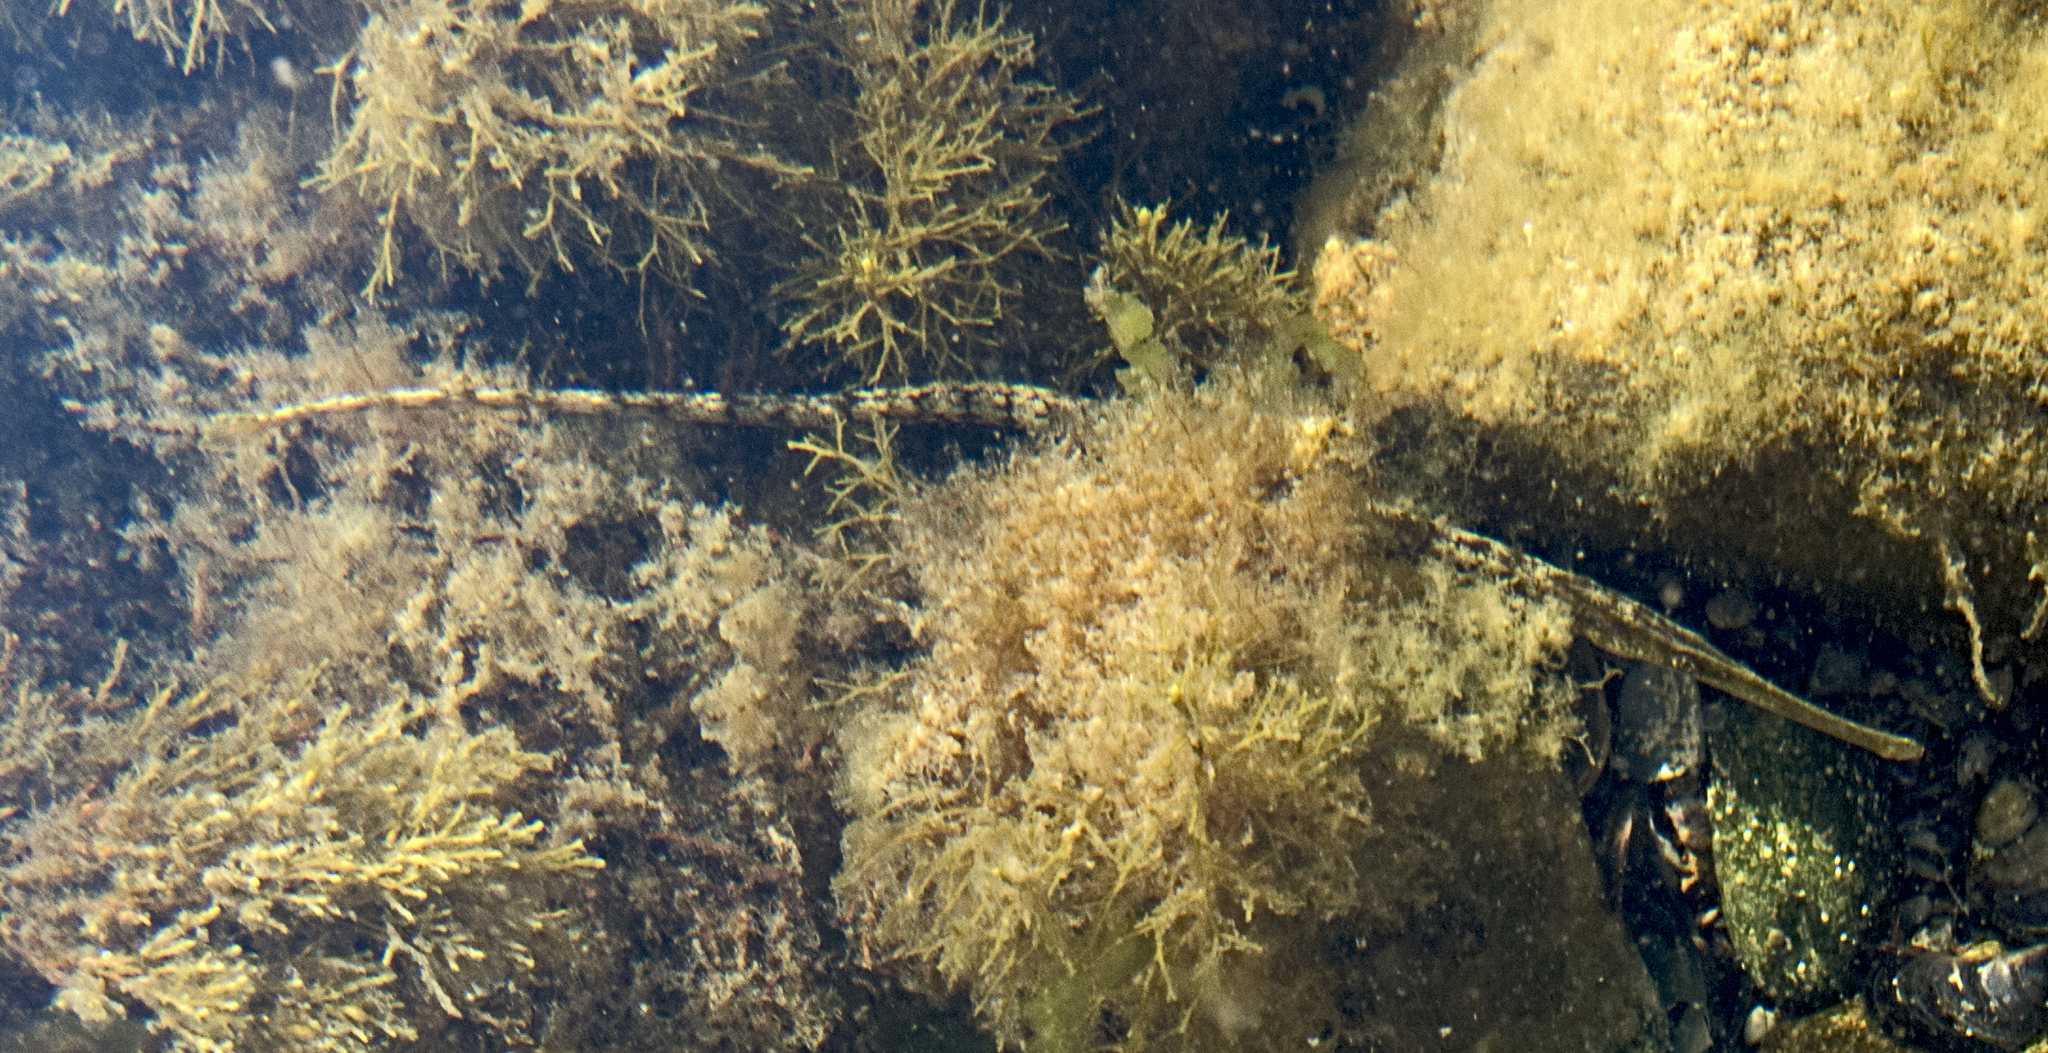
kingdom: Animalia
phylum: Chordata
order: Syngnathiformes
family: Syngnathidae
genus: Syngnathus
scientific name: Syngnathus typhle
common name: Deep-snouted pipefish
